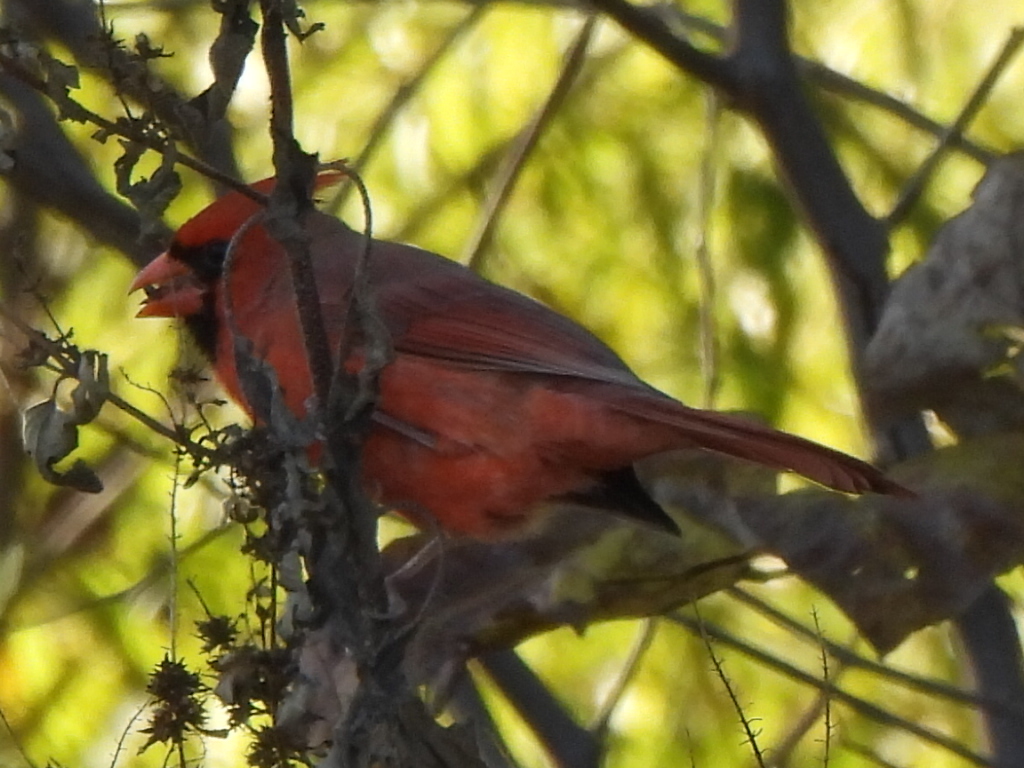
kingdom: Animalia
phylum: Chordata
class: Aves
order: Passeriformes
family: Cardinalidae
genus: Cardinalis
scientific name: Cardinalis cardinalis
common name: Northern cardinal
